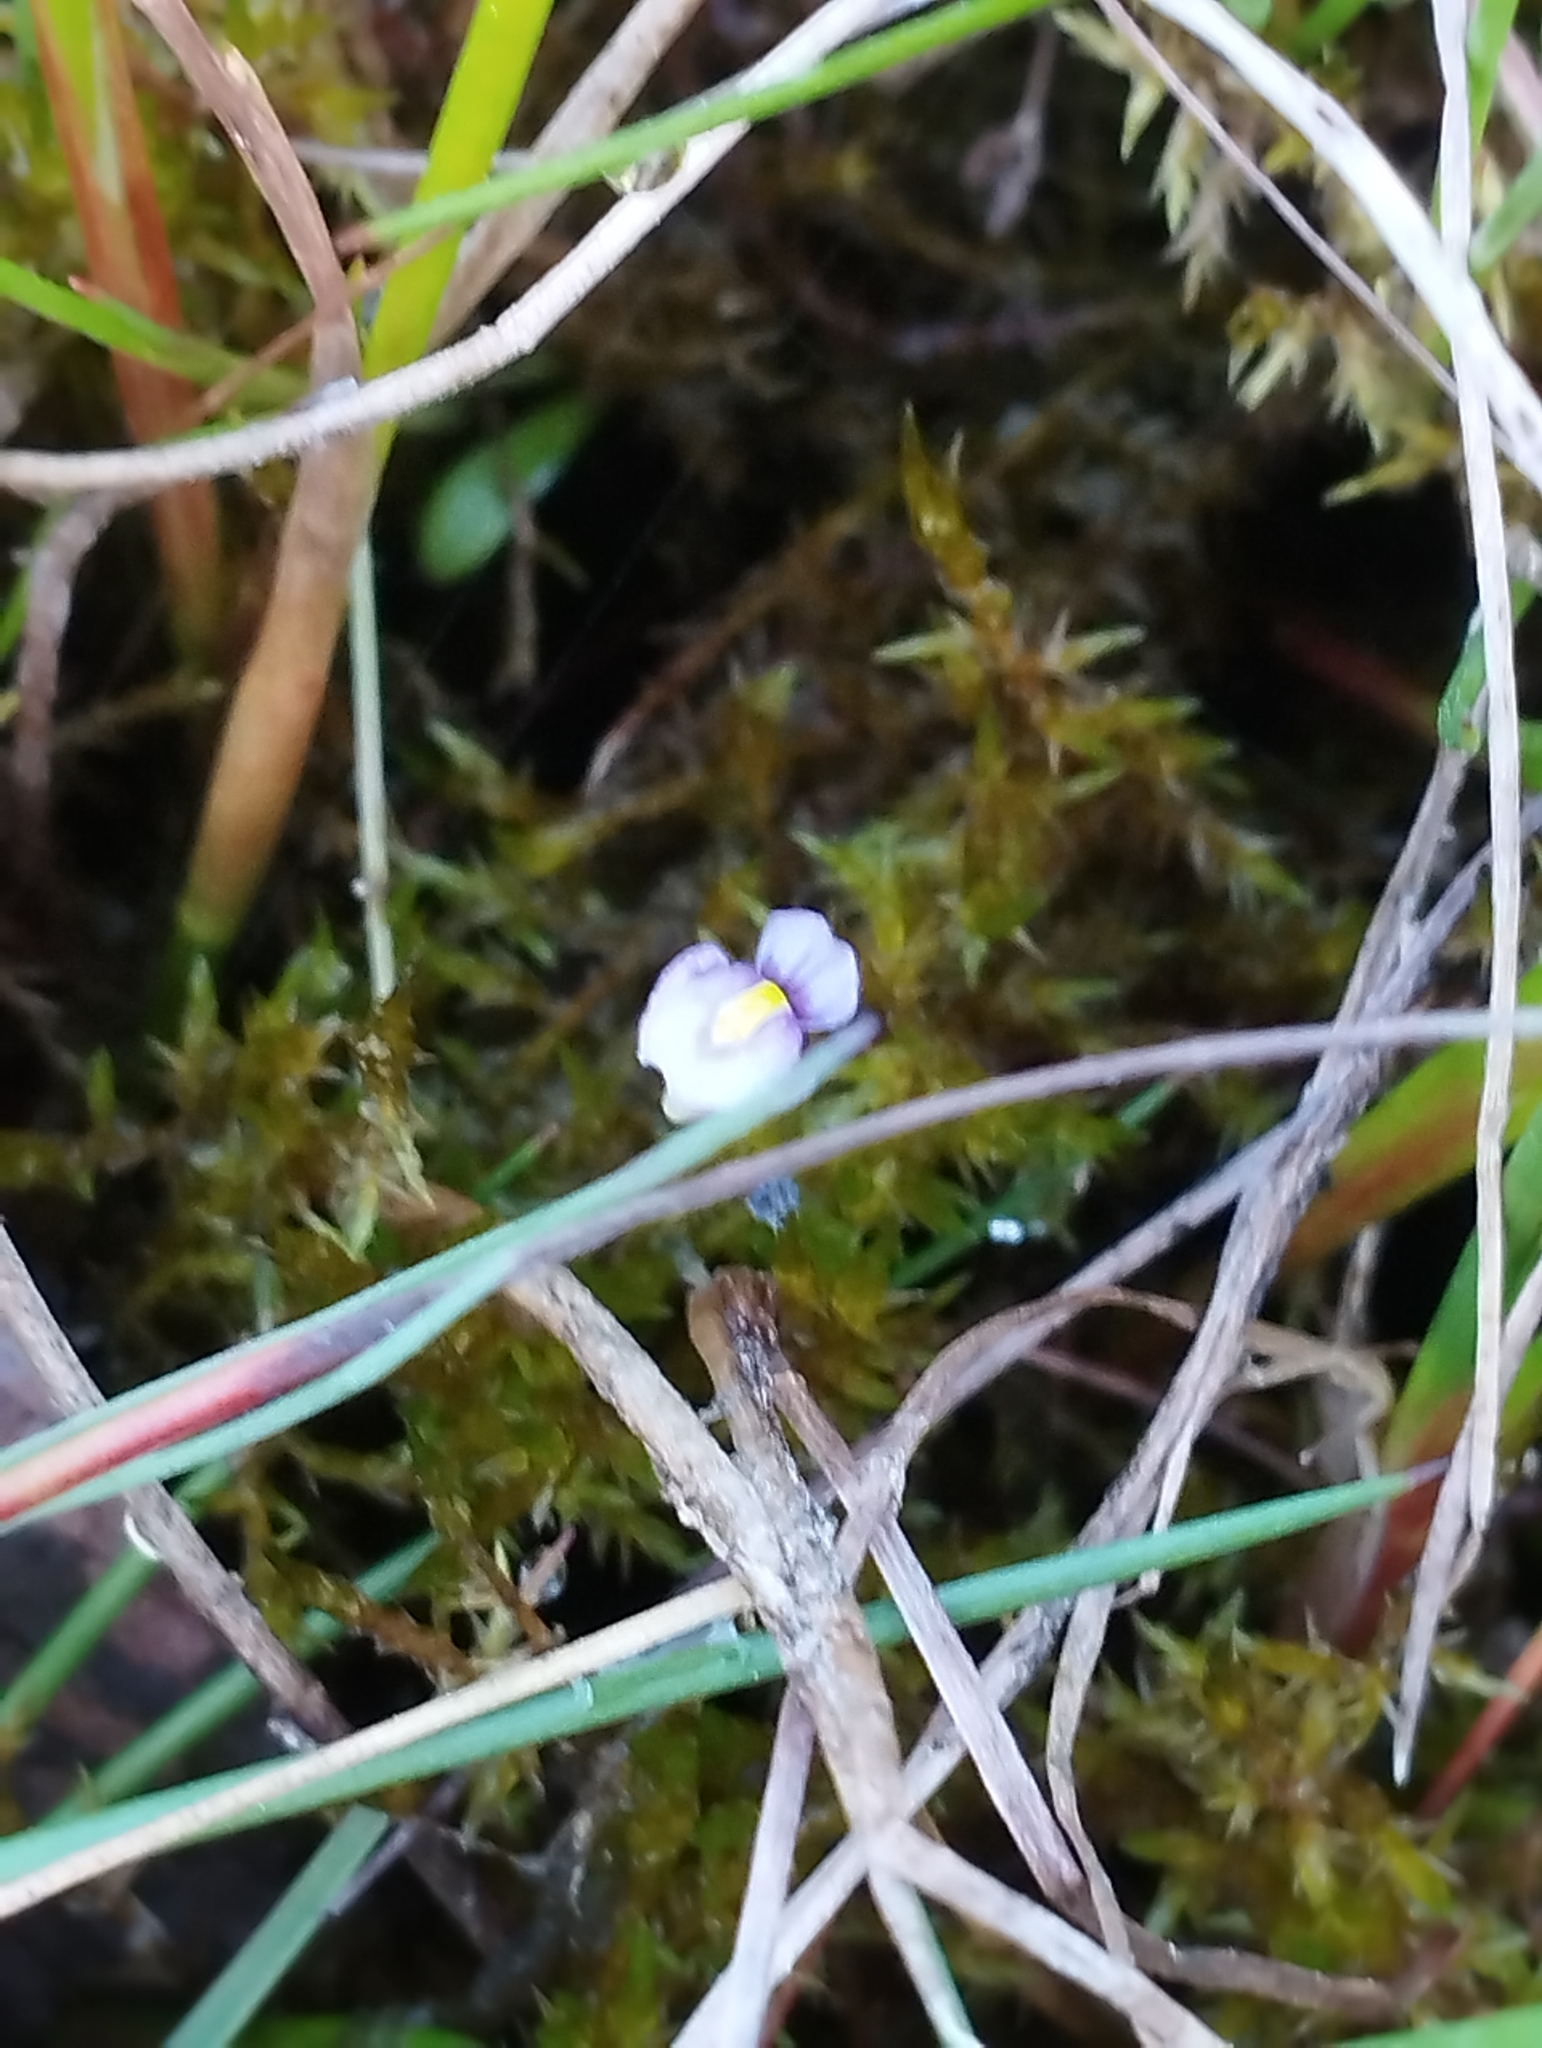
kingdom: Plantae
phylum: Tracheophyta
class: Magnoliopsida
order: Lamiales
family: Lentibulariaceae
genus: Utricularia
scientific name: Utricularia dichotoma
